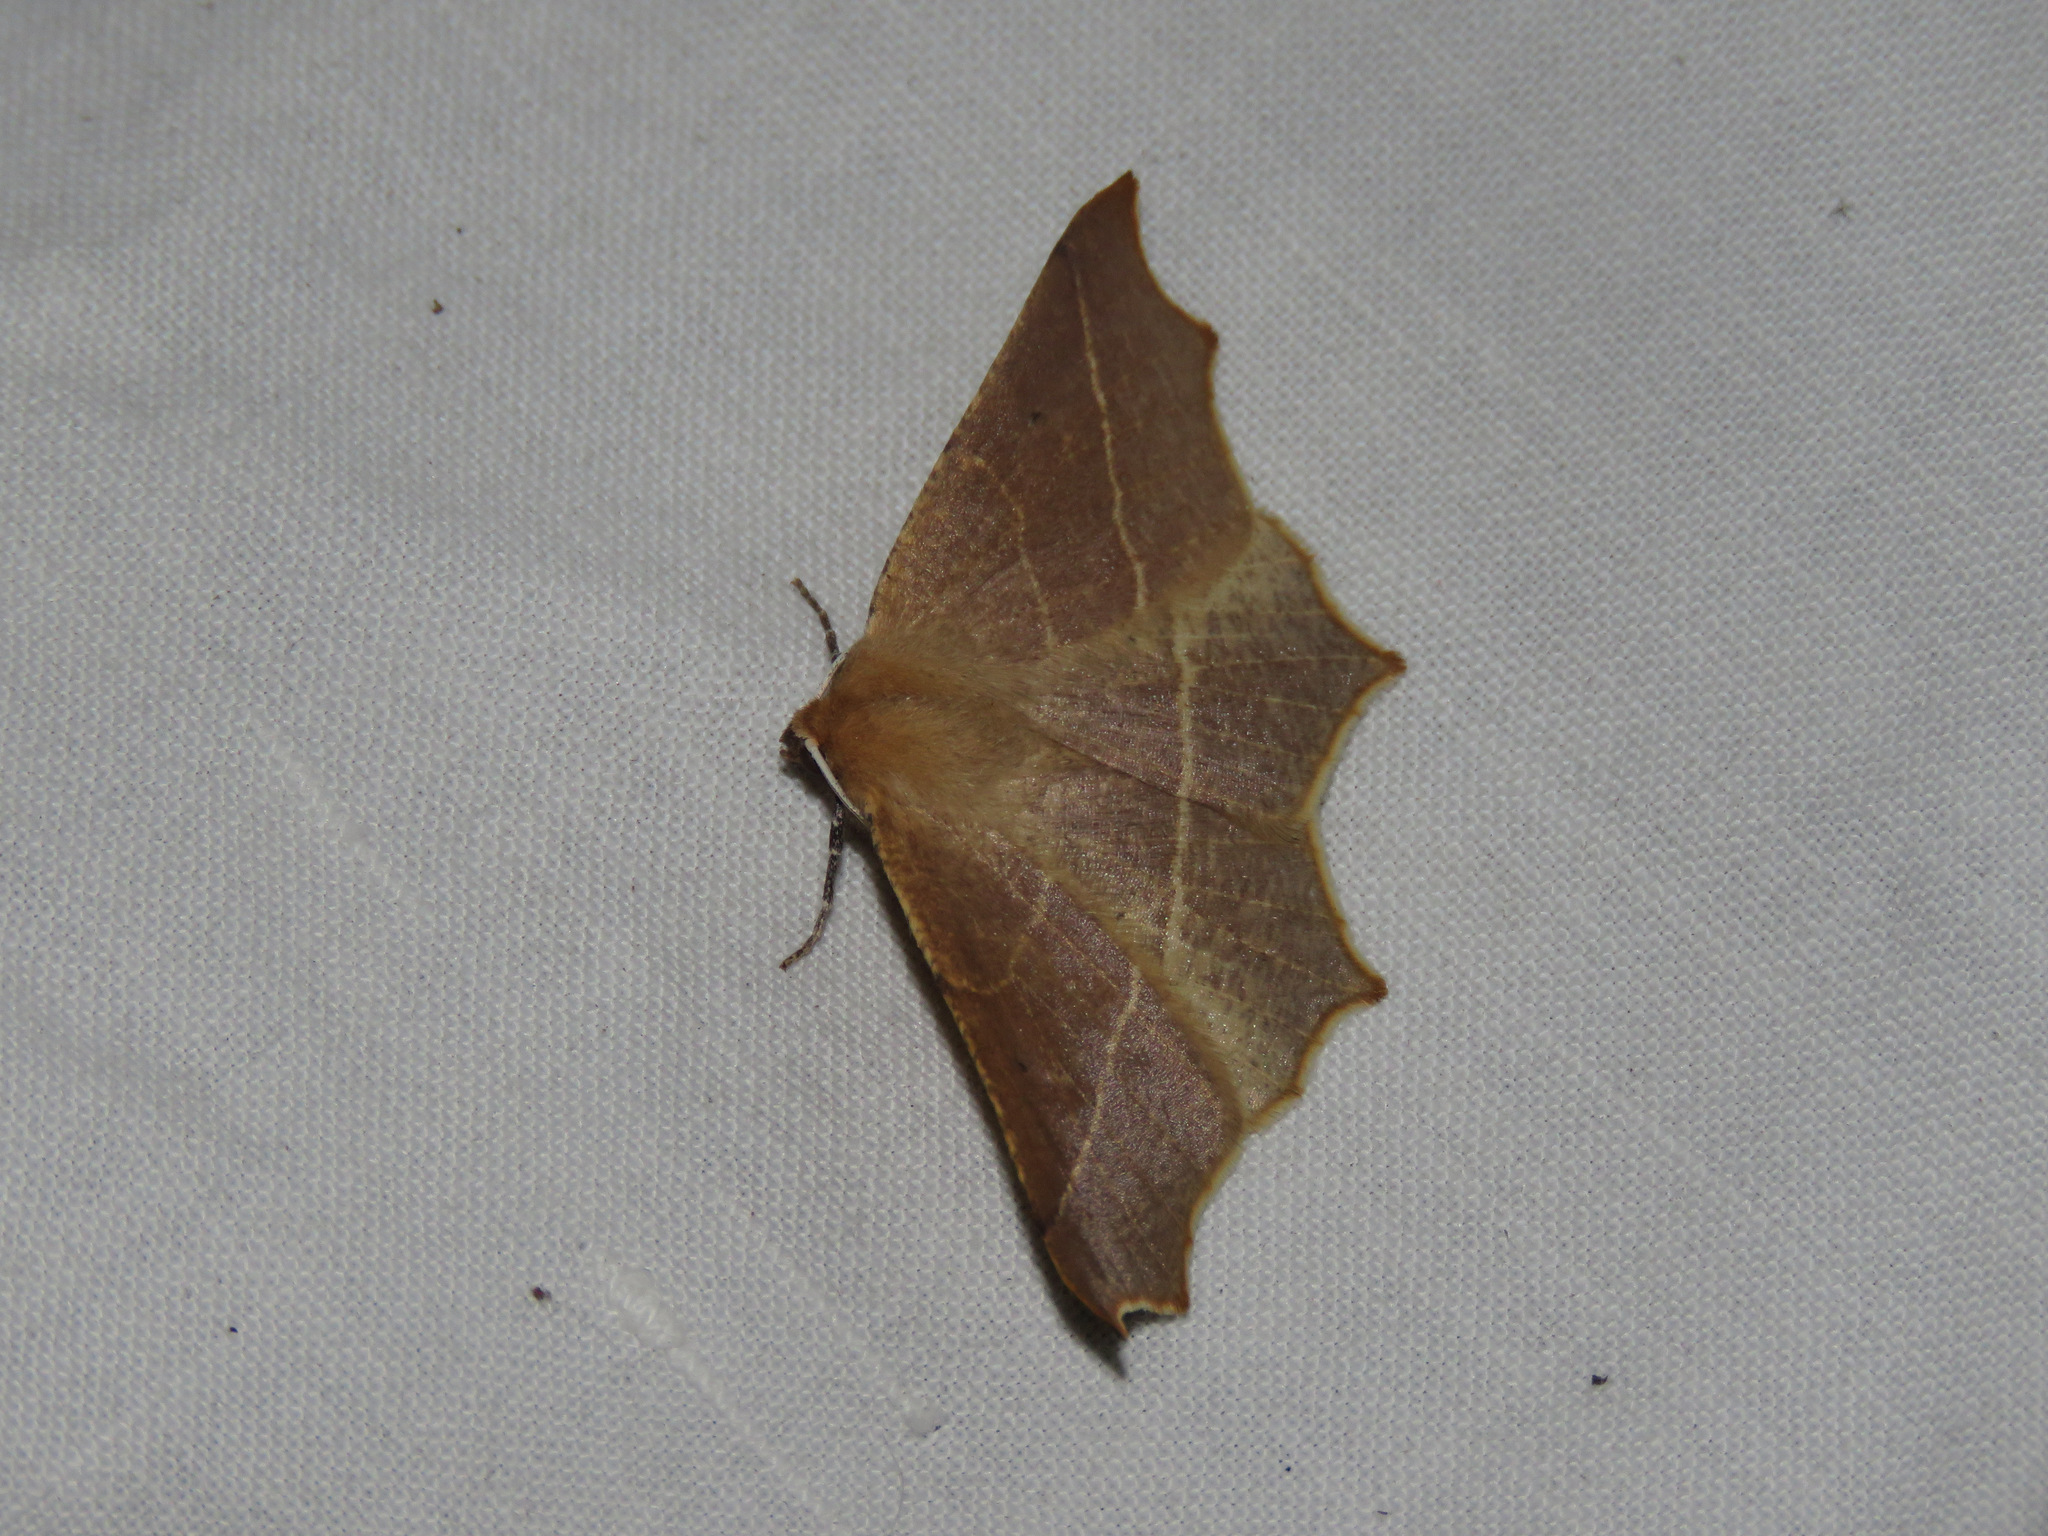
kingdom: Animalia
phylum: Arthropoda
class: Insecta
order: Lepidoptera
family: Geometridae
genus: Tetracis
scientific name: Tetracis cervinaria
